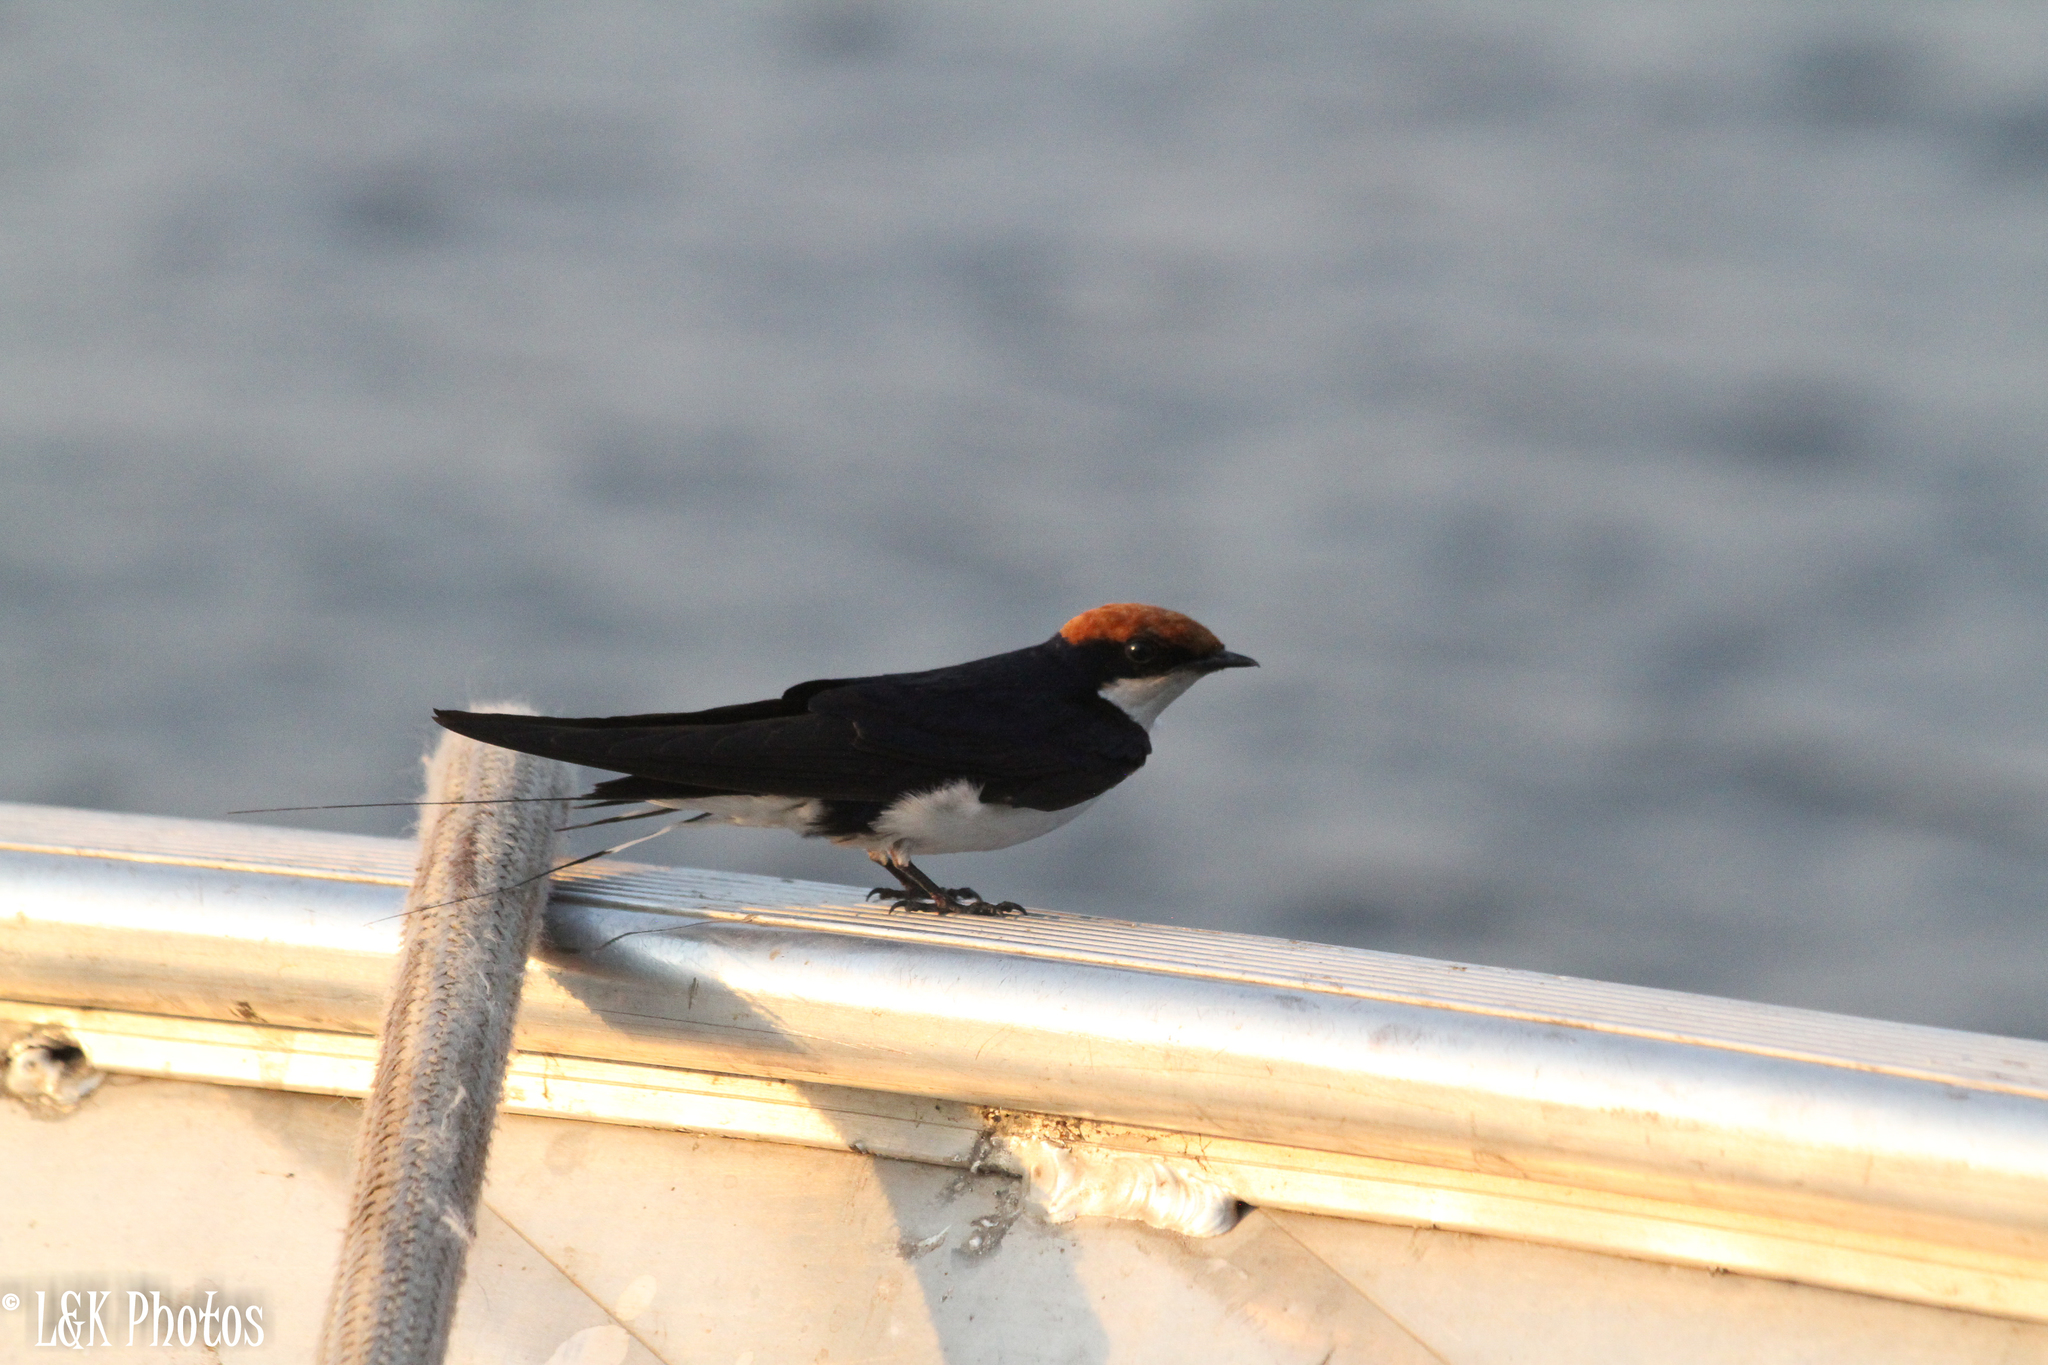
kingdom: Animalia
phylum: Chordata
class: Aves
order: Passeriformes
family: Hirundinidae
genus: Hirundo
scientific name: Hirundo smithii
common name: Wire-tailed swallow
